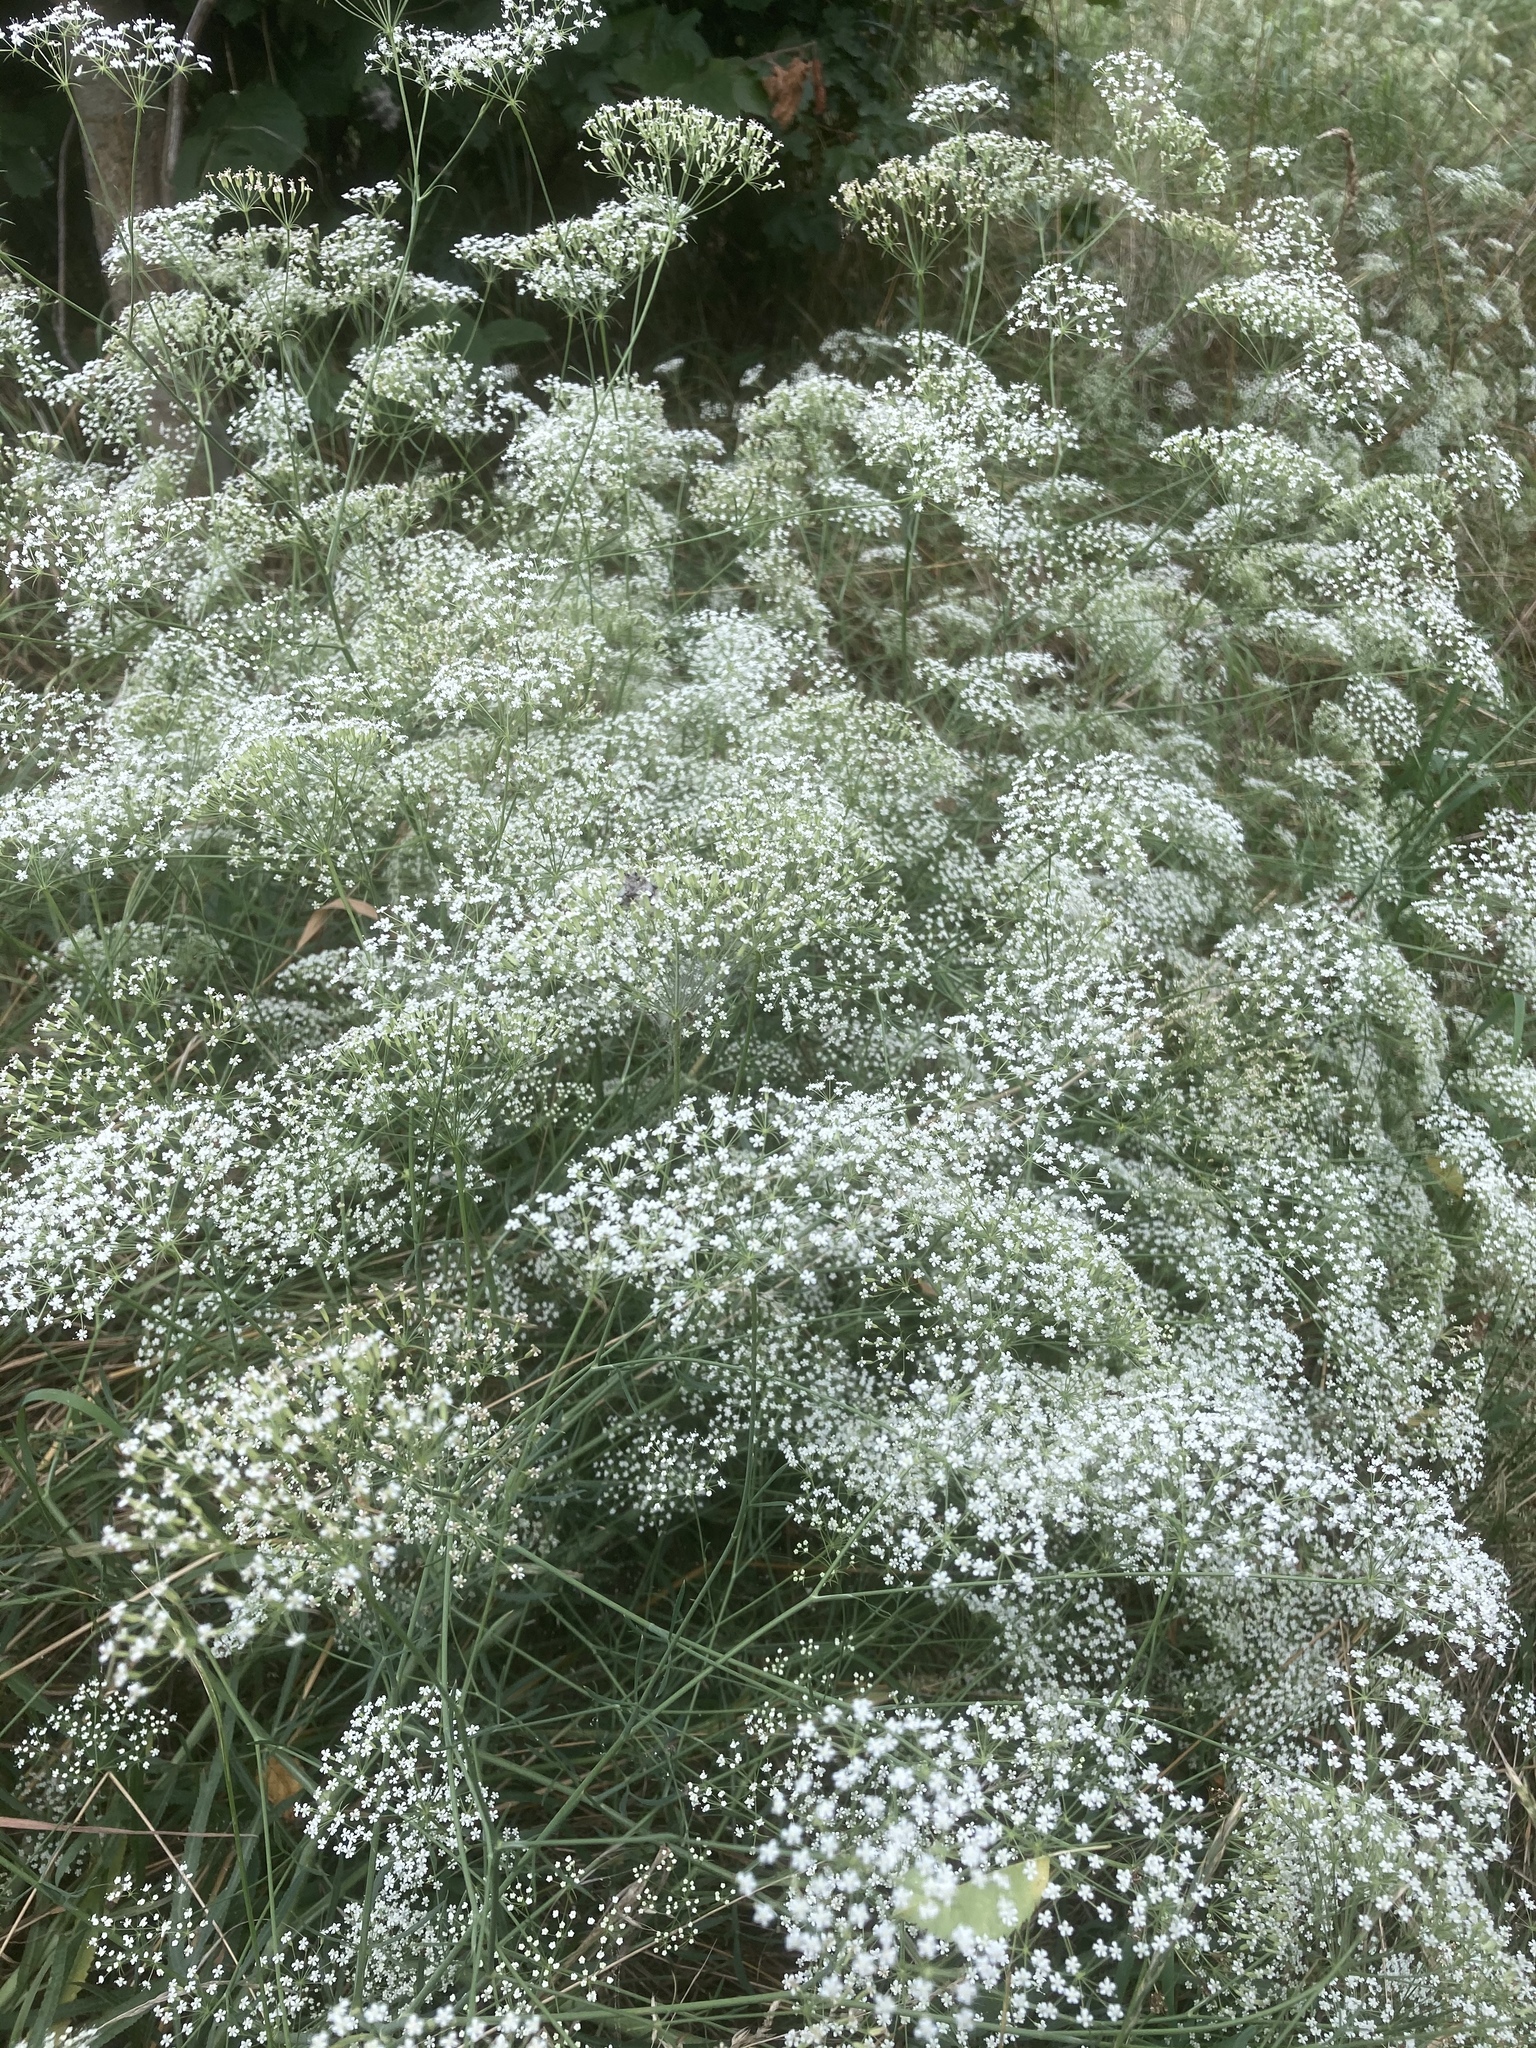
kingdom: Plantae
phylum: Tracheophyta
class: Magnoliopsida
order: Apiales
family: Apiaceae
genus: Falcaria
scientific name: Falcaria vulgaris
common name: Longleaf
